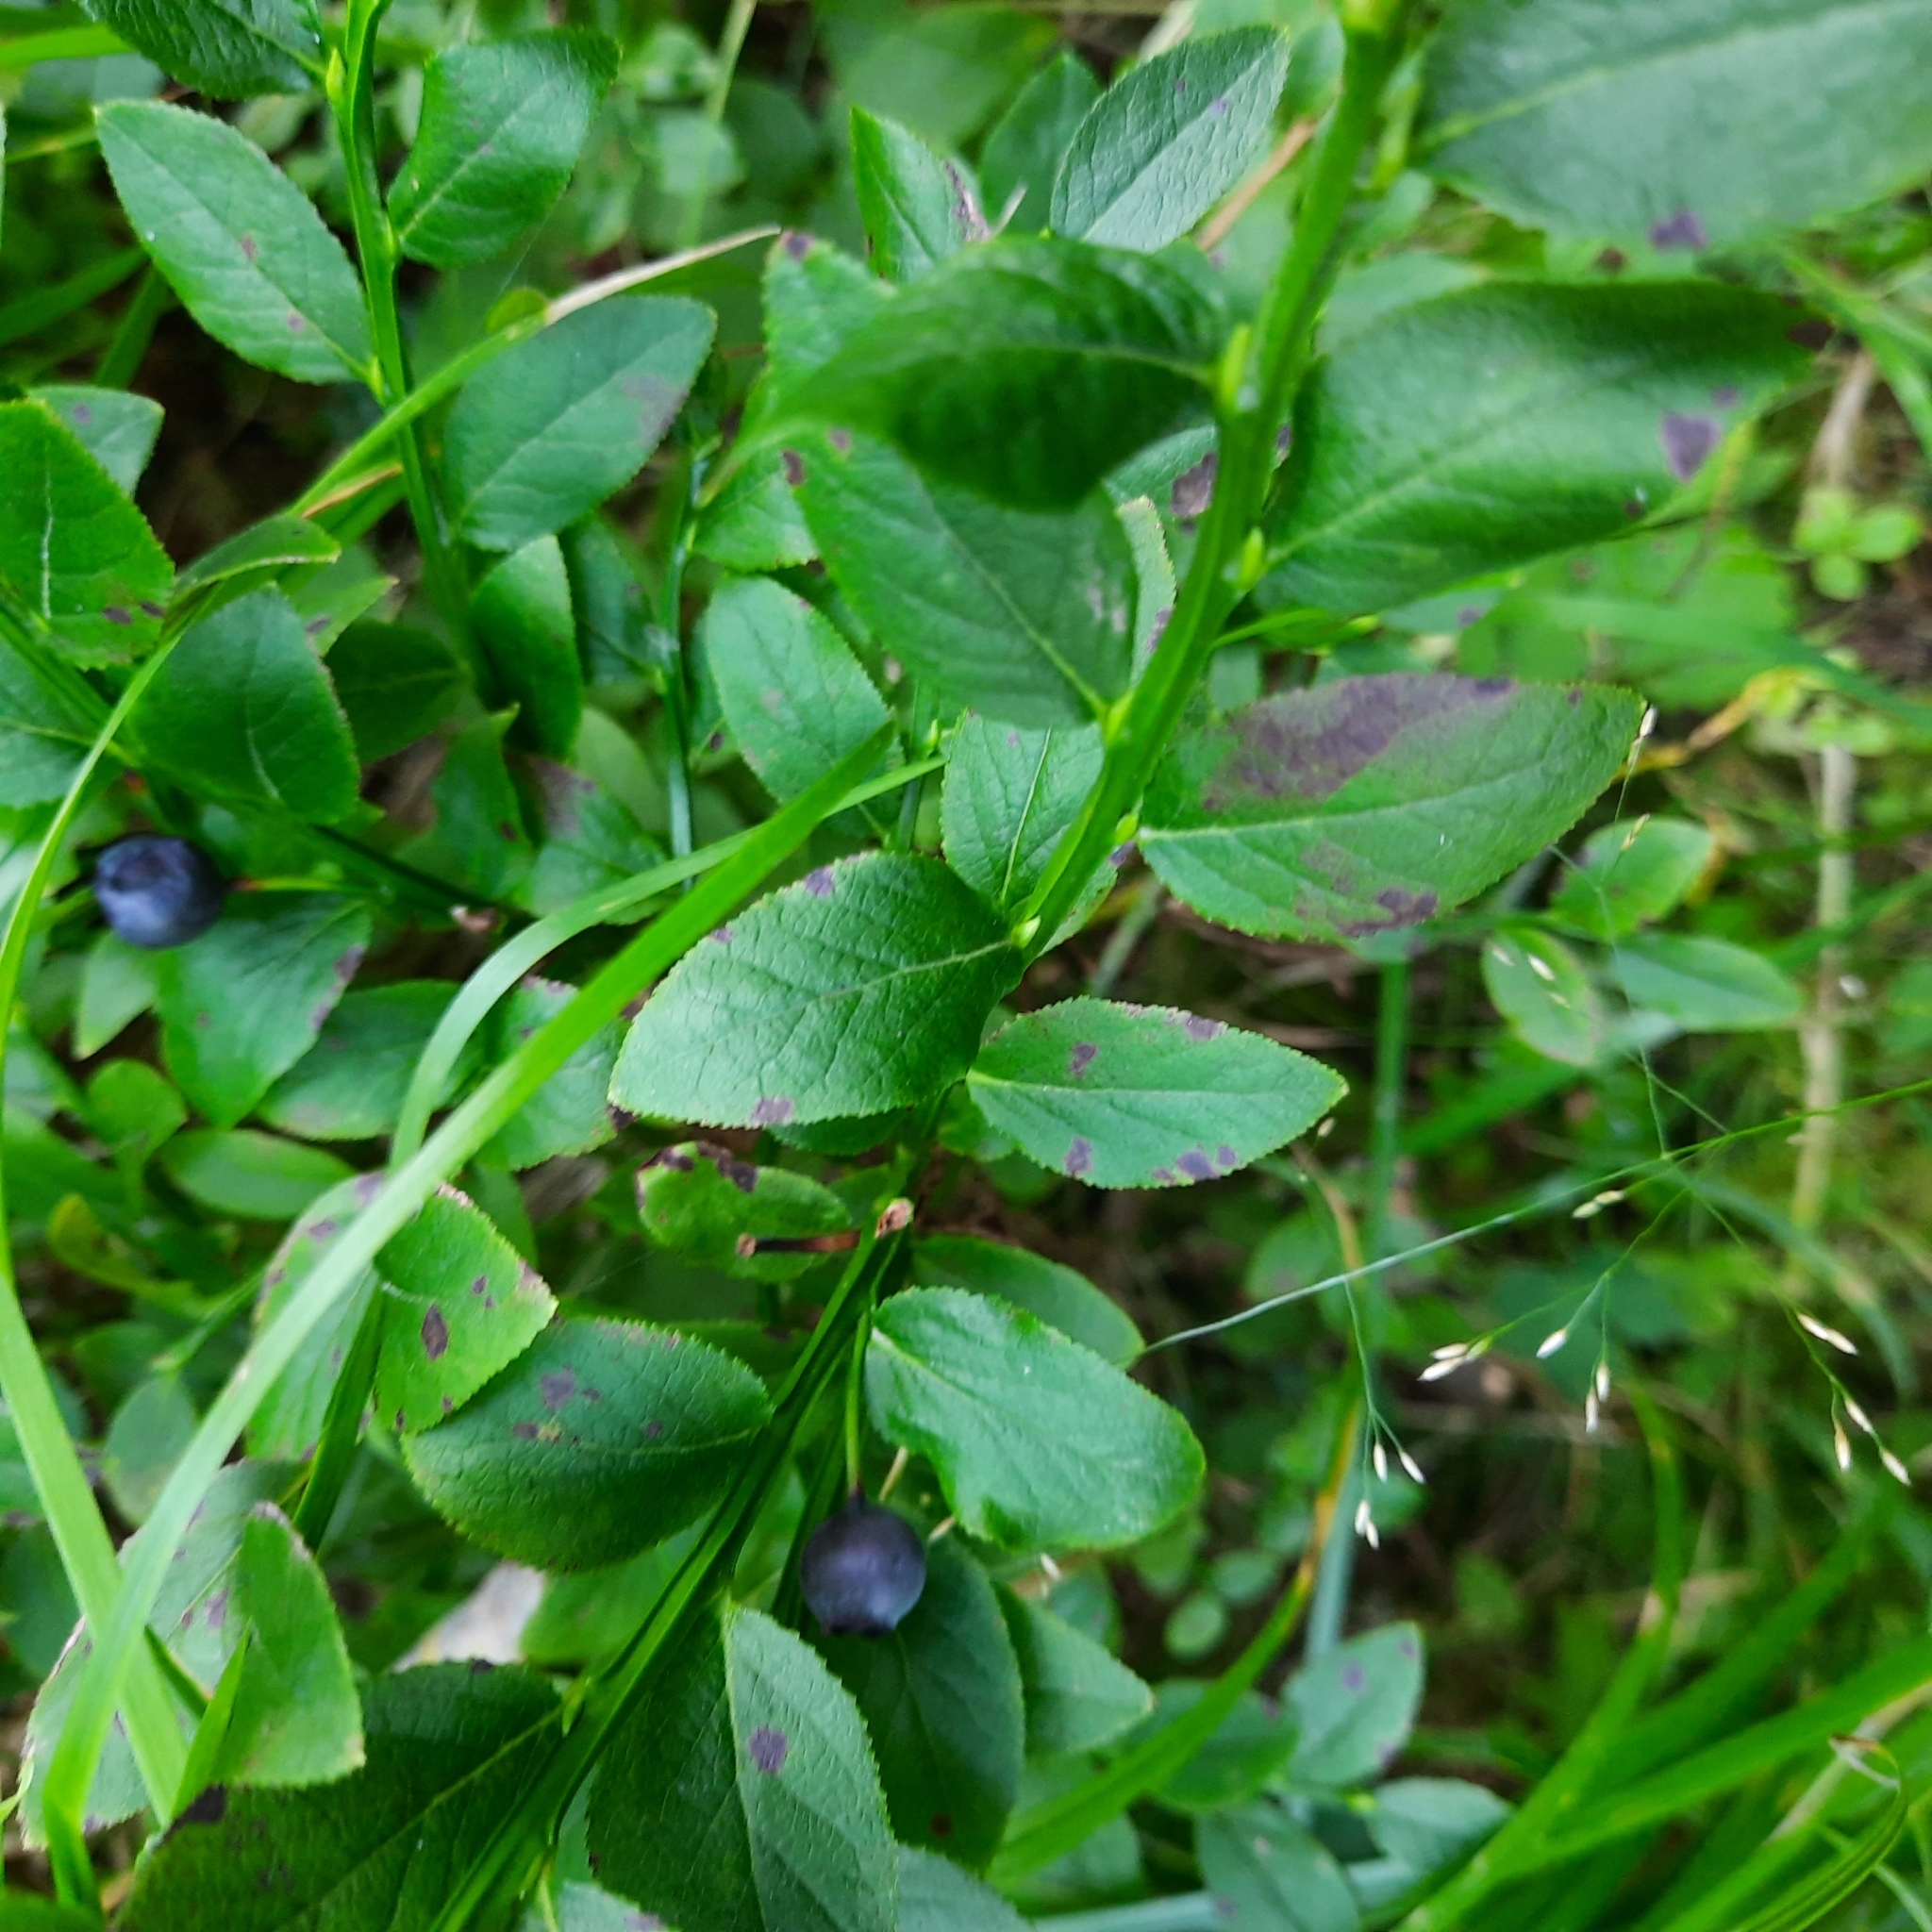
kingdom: Plantae
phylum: Tracheophyta
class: Magnoliopsida
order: Ericales
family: Ericaceae
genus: Vaccinium
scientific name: Vaccinium myrtillus
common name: Bilberry
